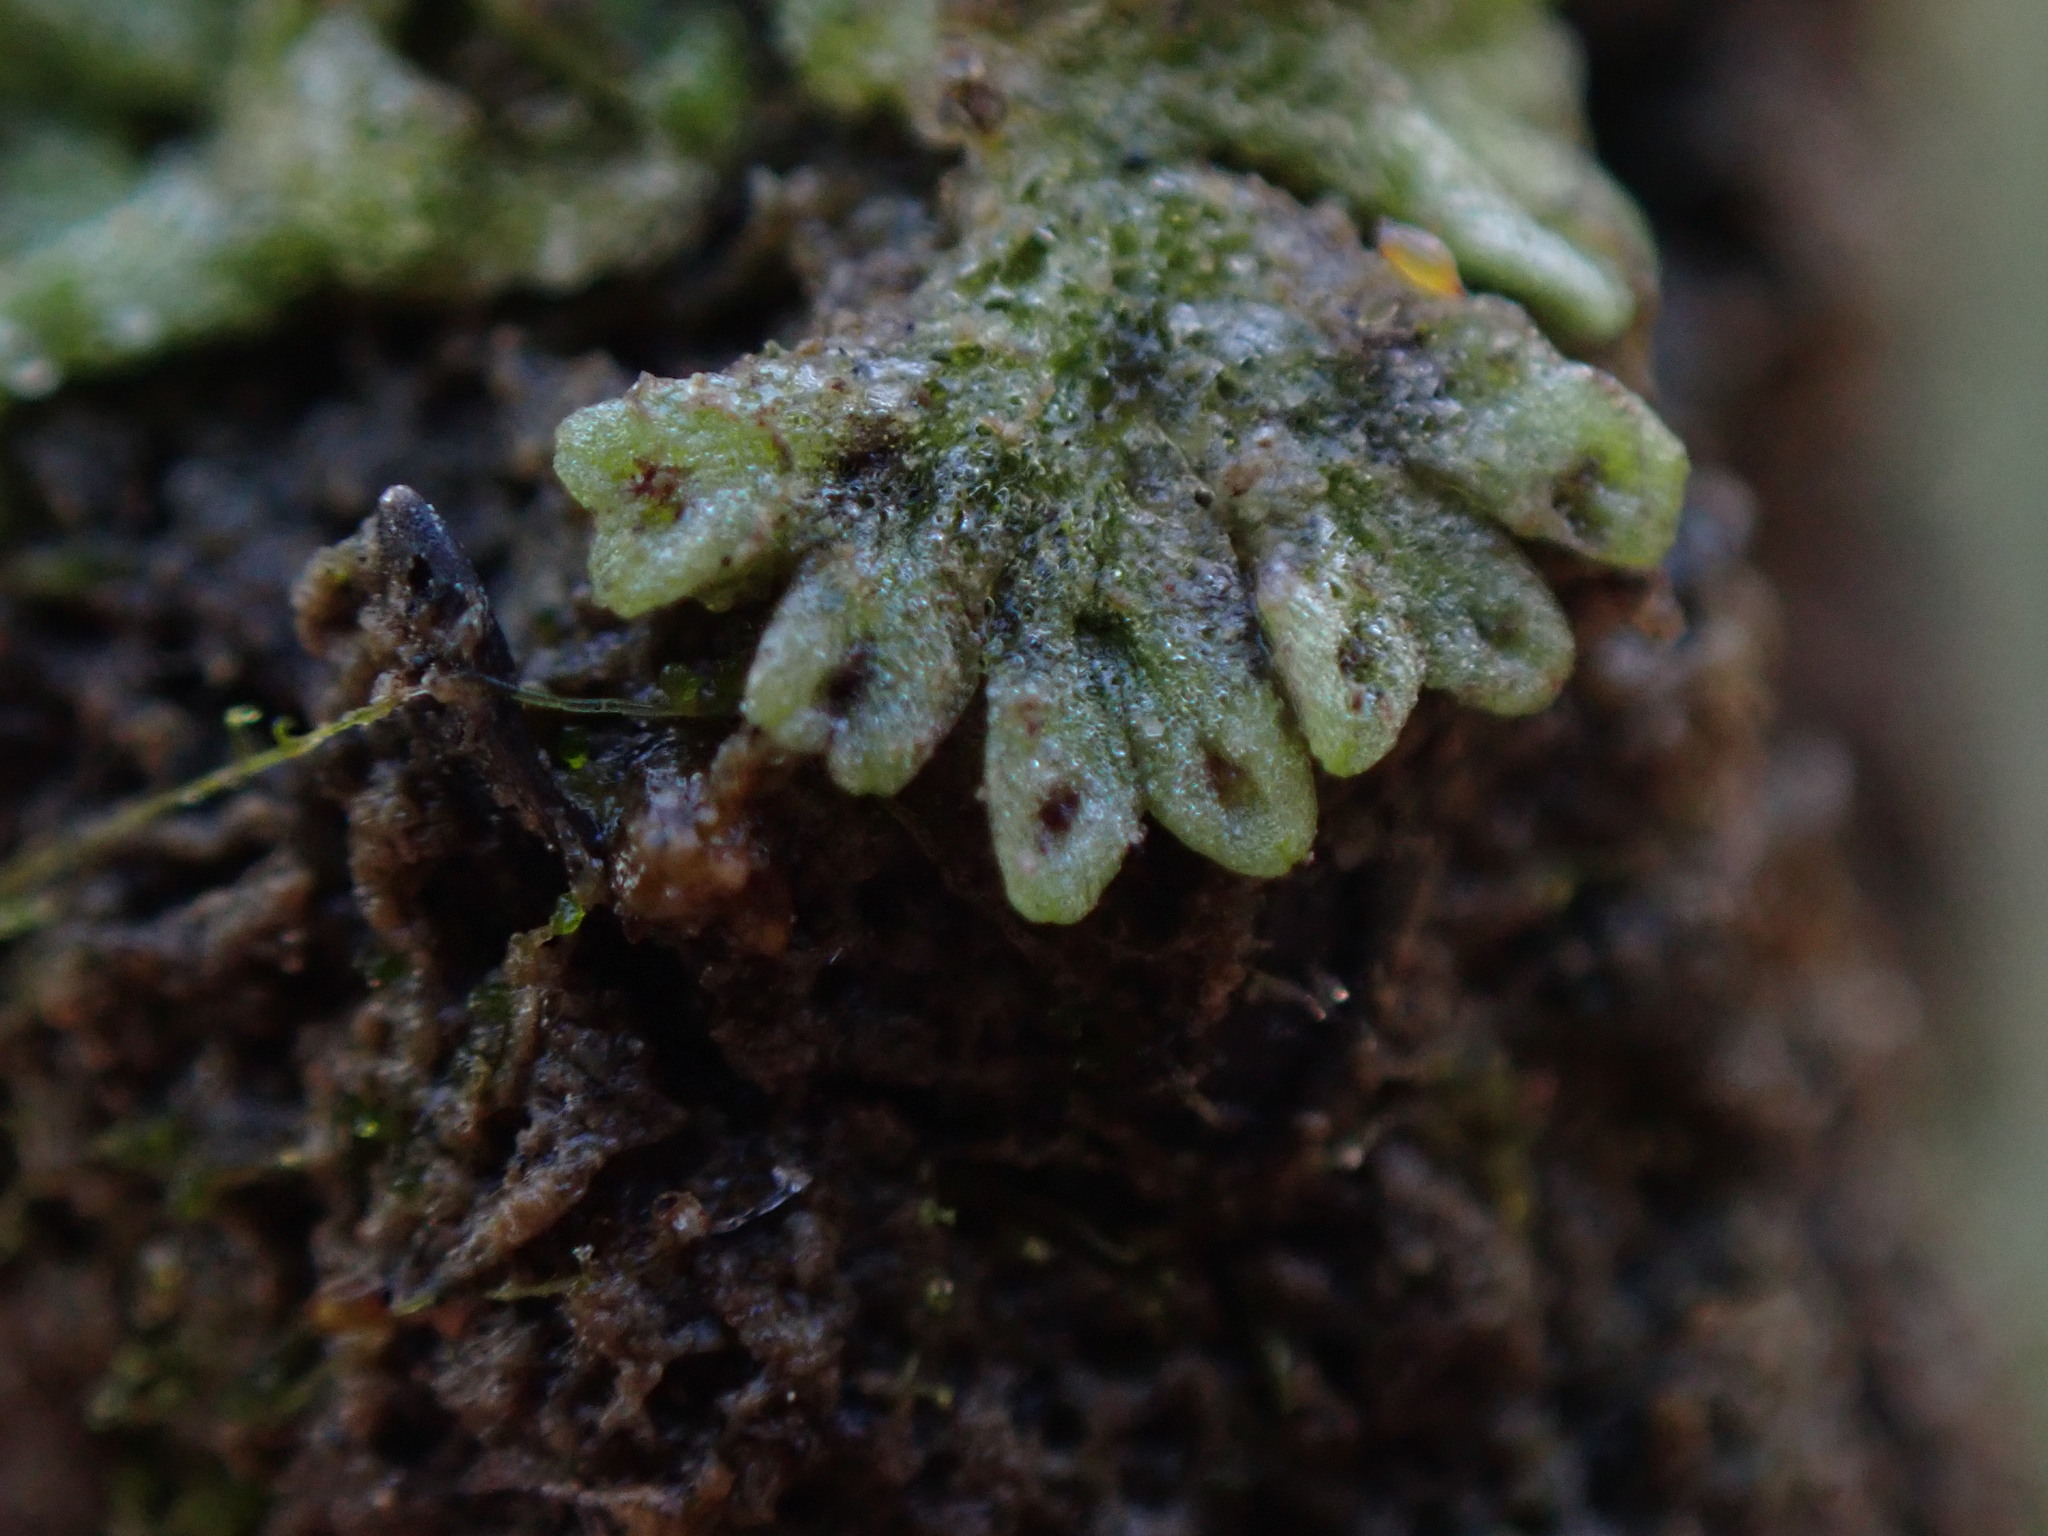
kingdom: Plantae
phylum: Marchantiophyta
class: Marchantiopsida
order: Marchantiales
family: Ricciaceae
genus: Riccia
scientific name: Riccia huebeneriana
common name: Violet crystalwort
